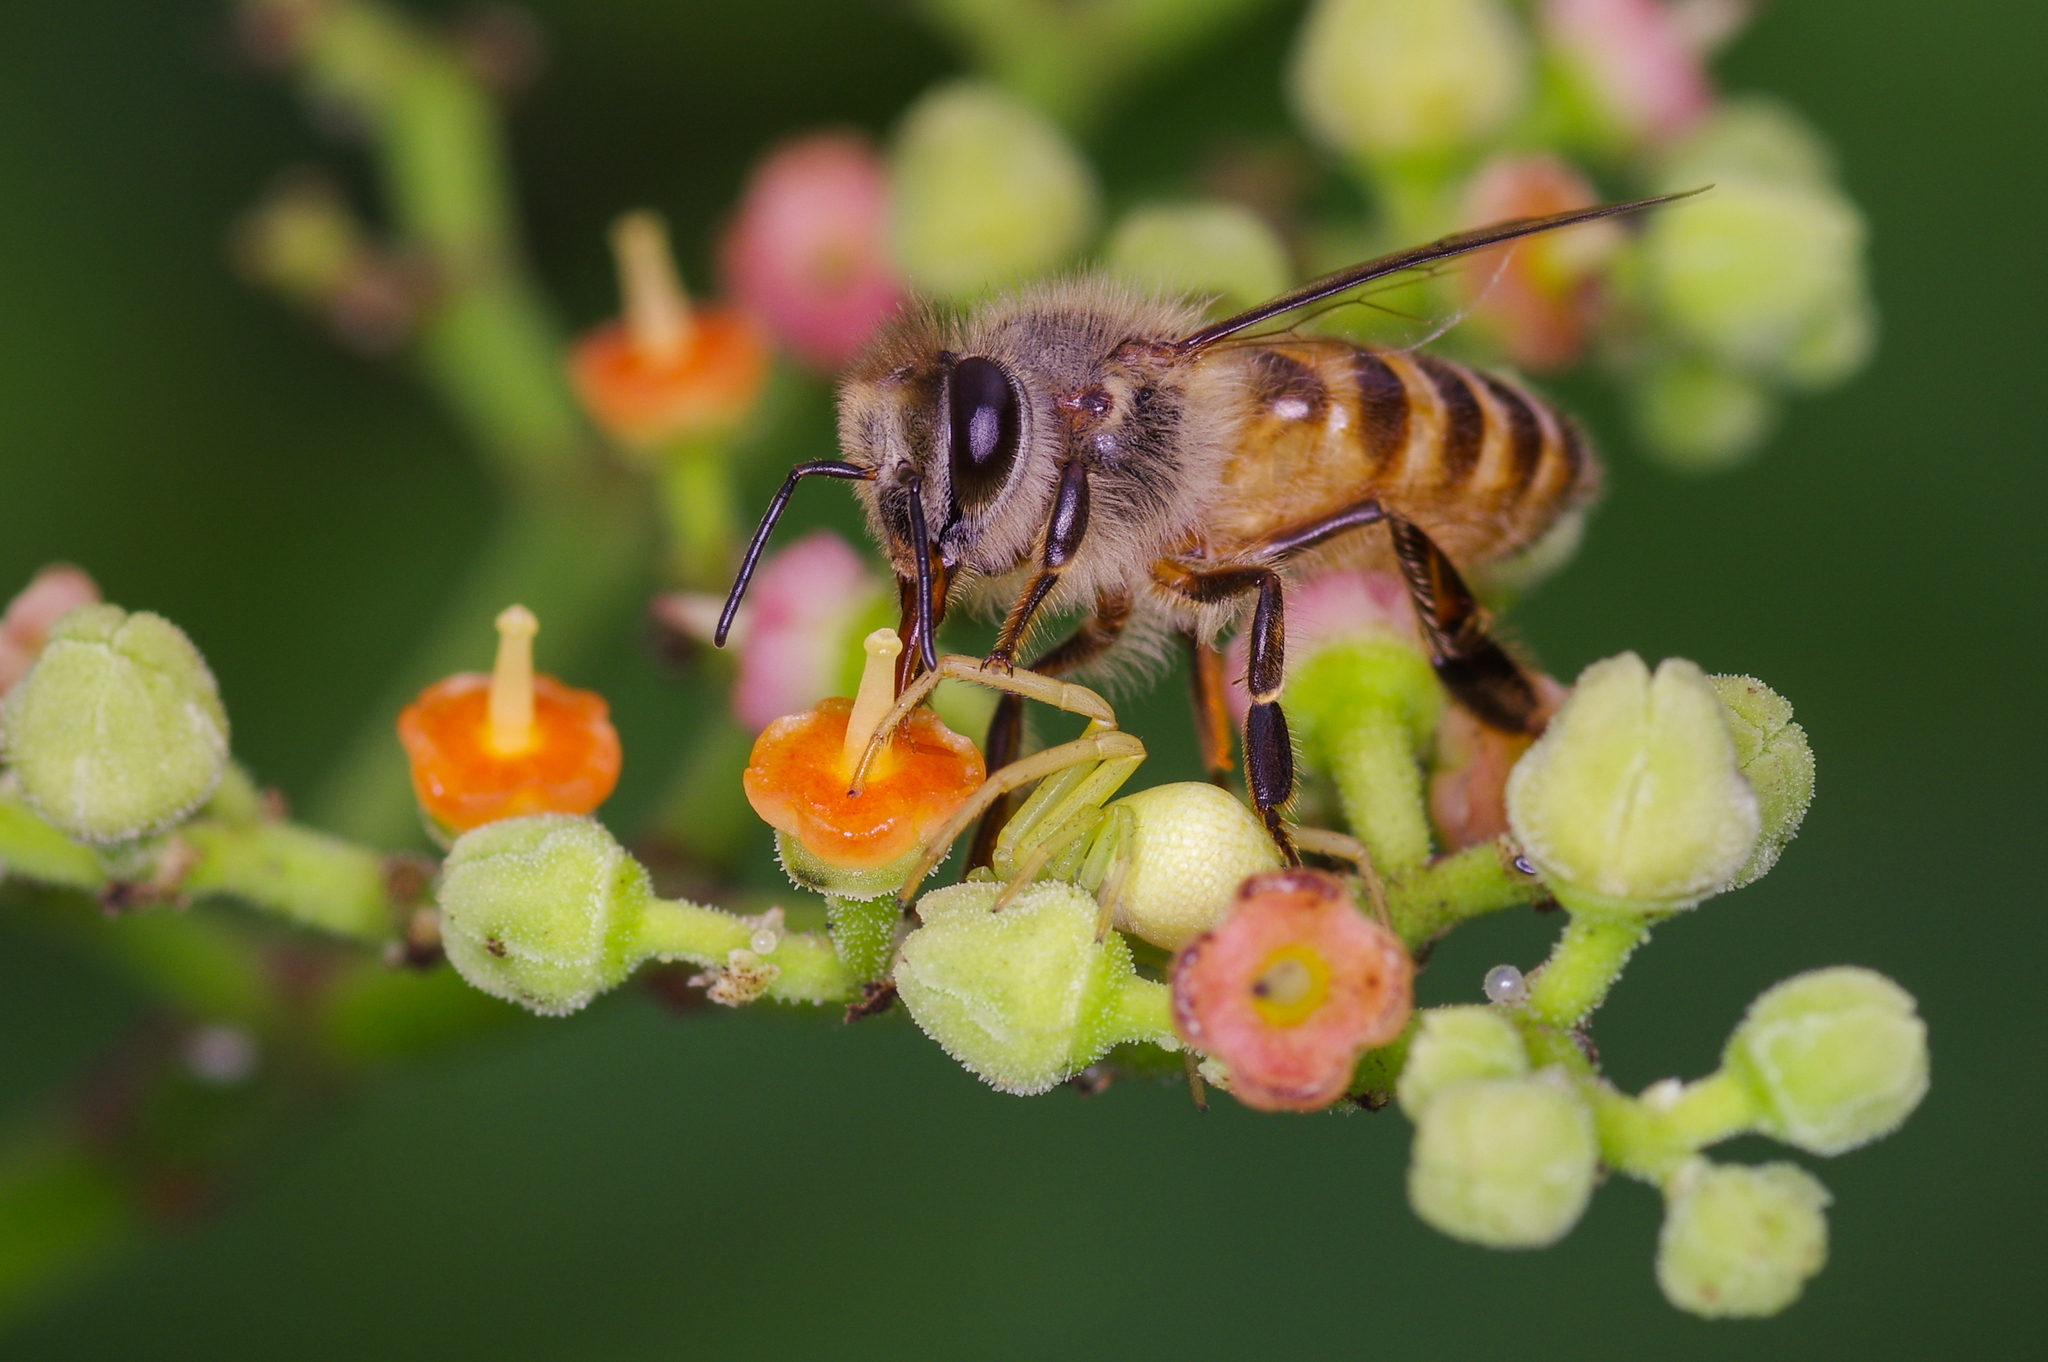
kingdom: Animalia
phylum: Arthropoda
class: Insecta
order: Hymenoptera
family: Apidae
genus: Apis
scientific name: Apis cerana
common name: Honey bee
